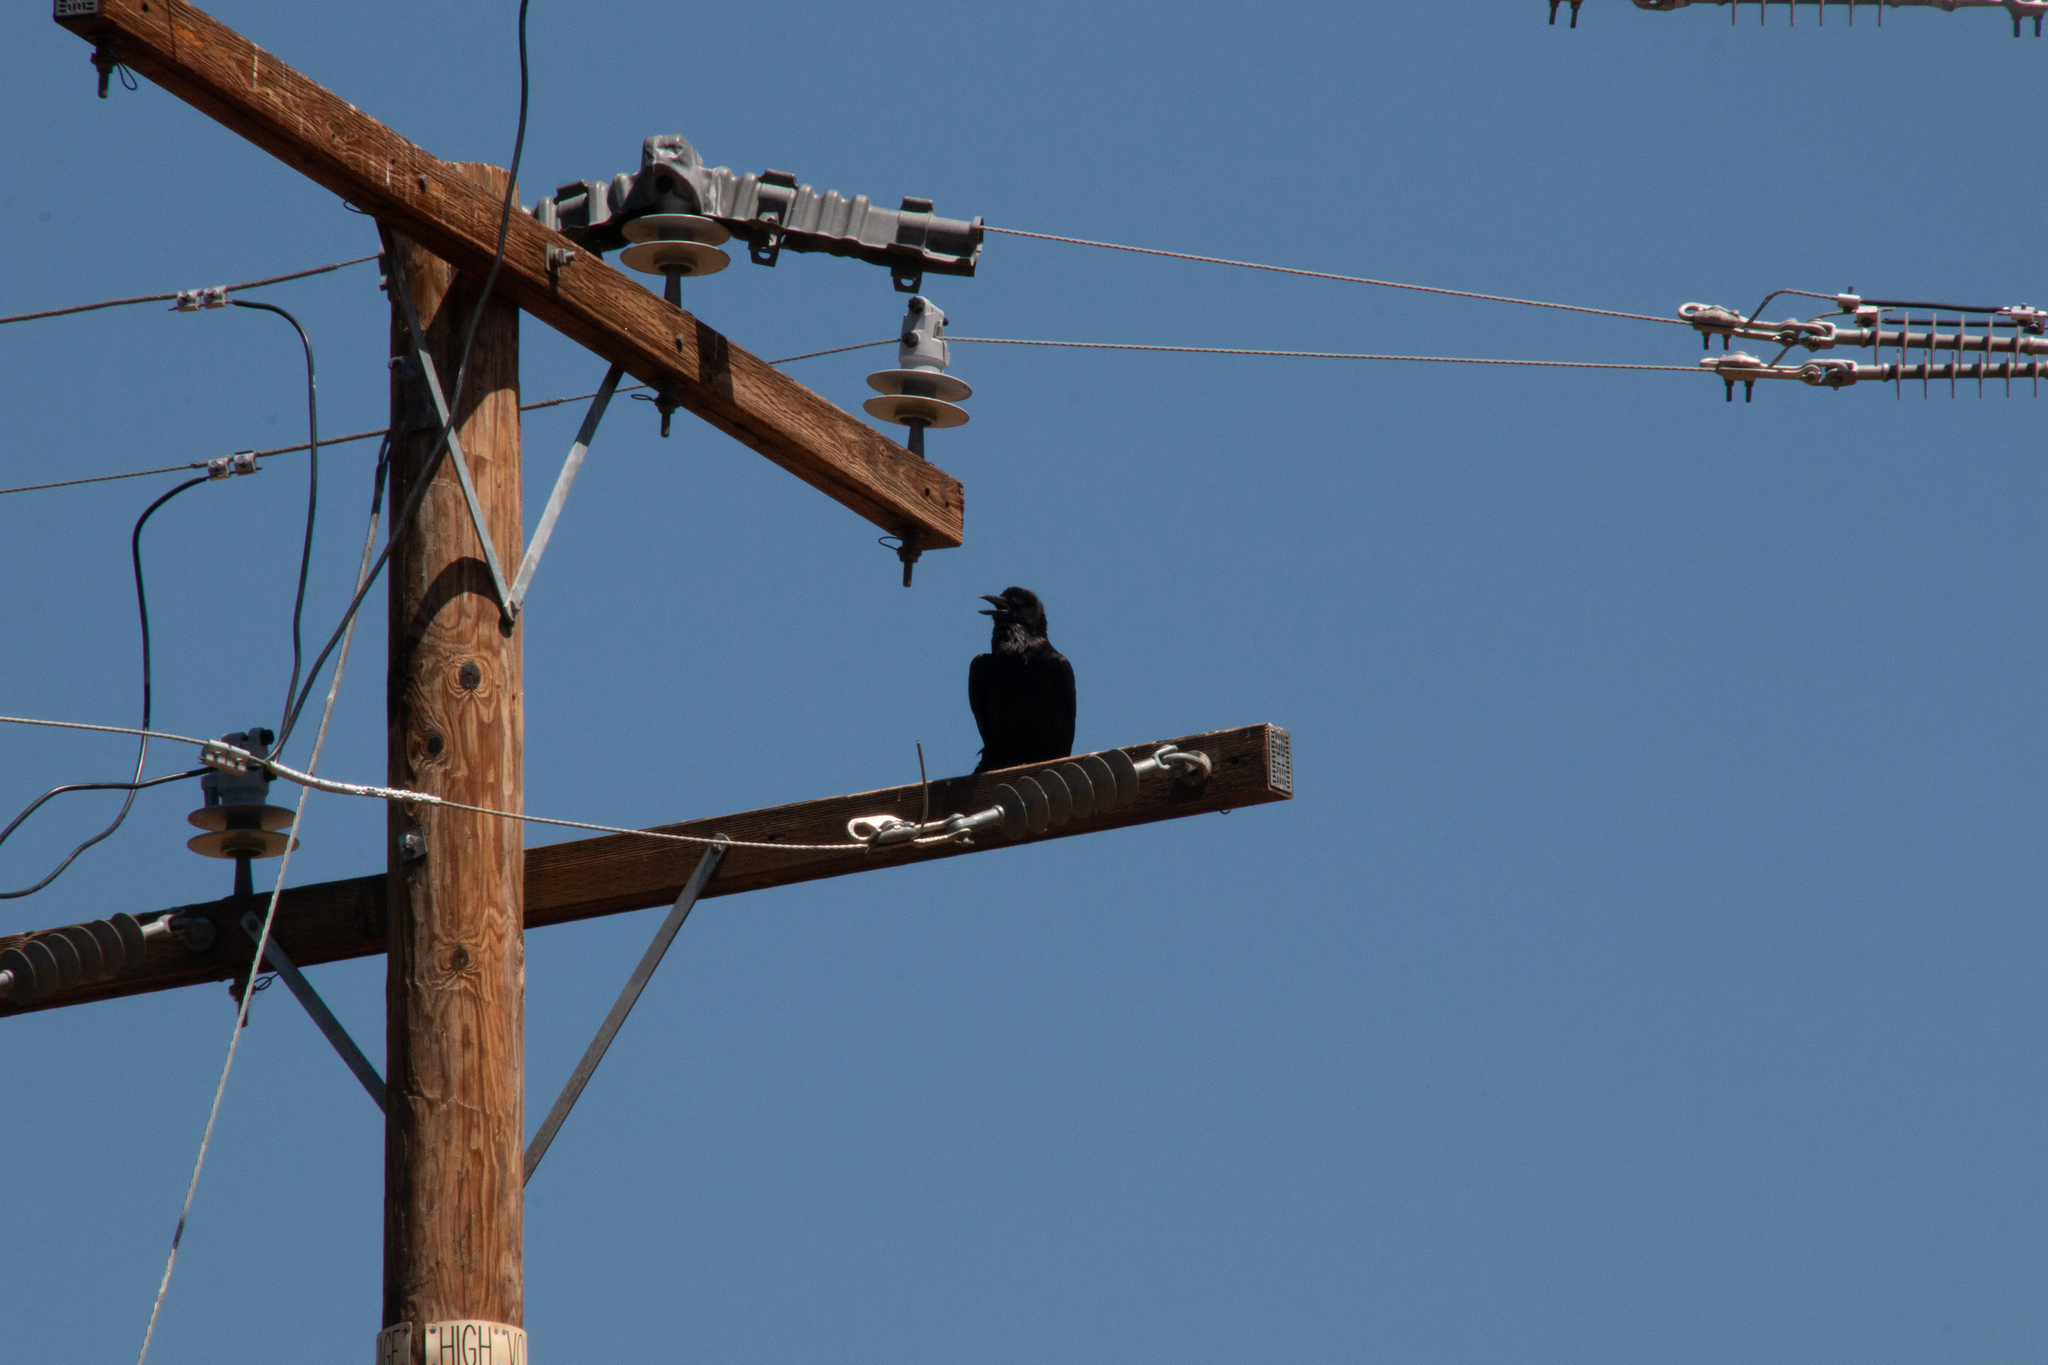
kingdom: Animalia
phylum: Chordata
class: Aves
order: Passeriformes
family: Corvidae
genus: Corvus
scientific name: Corvus corax
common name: Common raven
